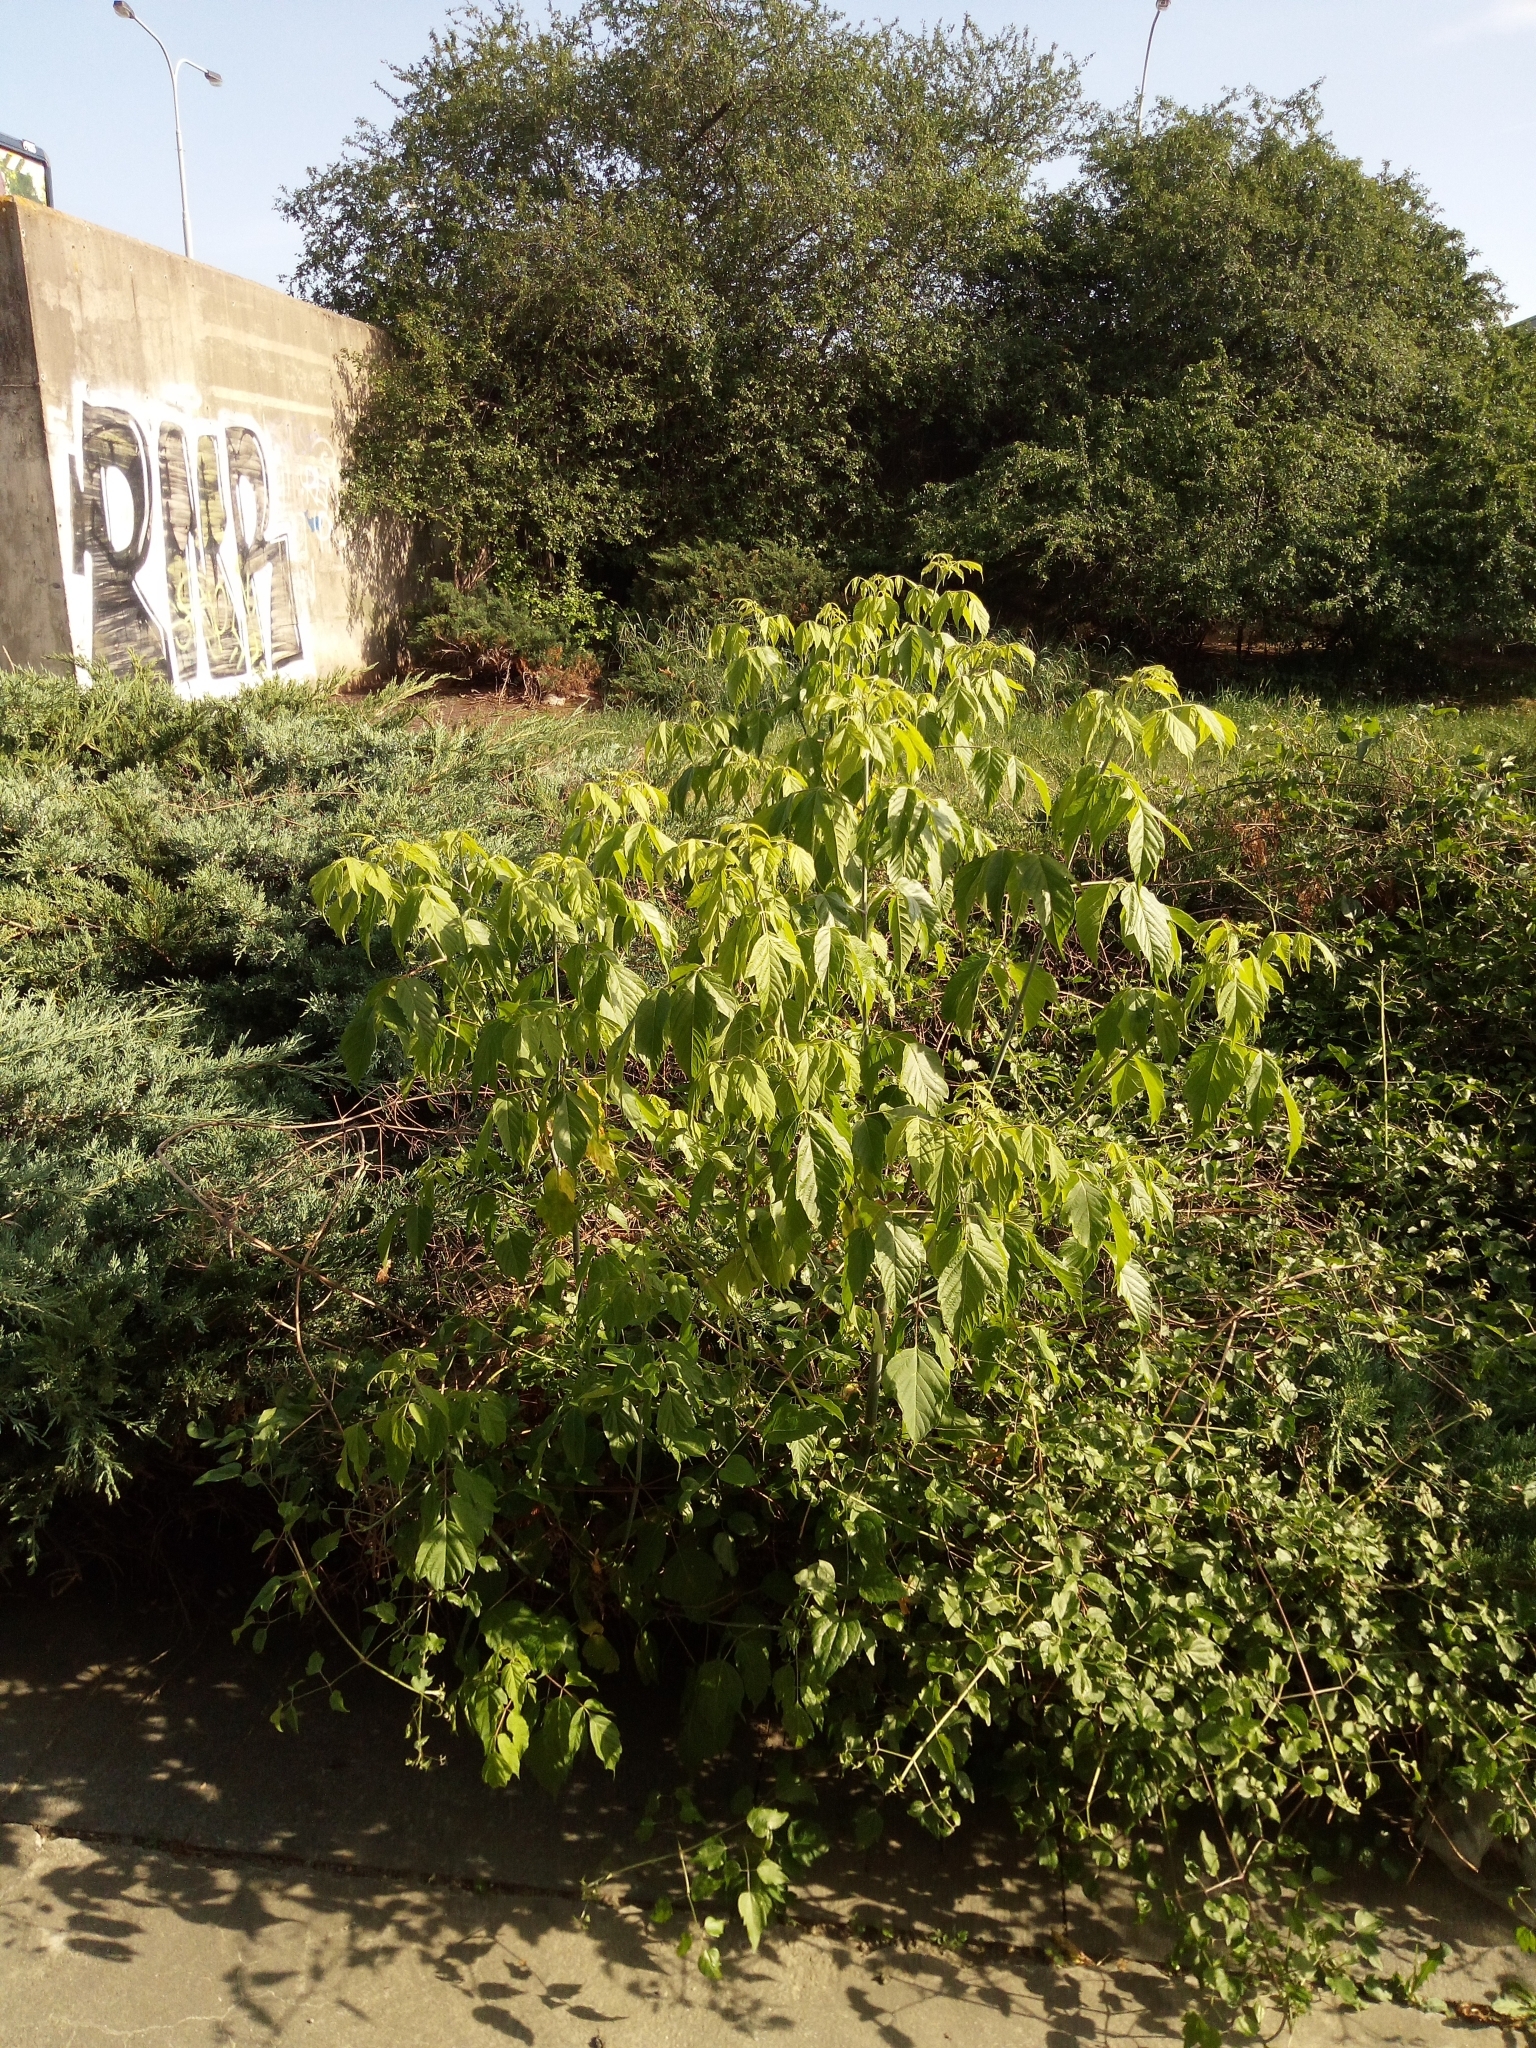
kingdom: Plantae
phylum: Tracheophyta
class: Magnoliopsida
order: Sapindales
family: Sapindaceae
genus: Acer
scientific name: Acer negundo
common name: Ashleaf maple
